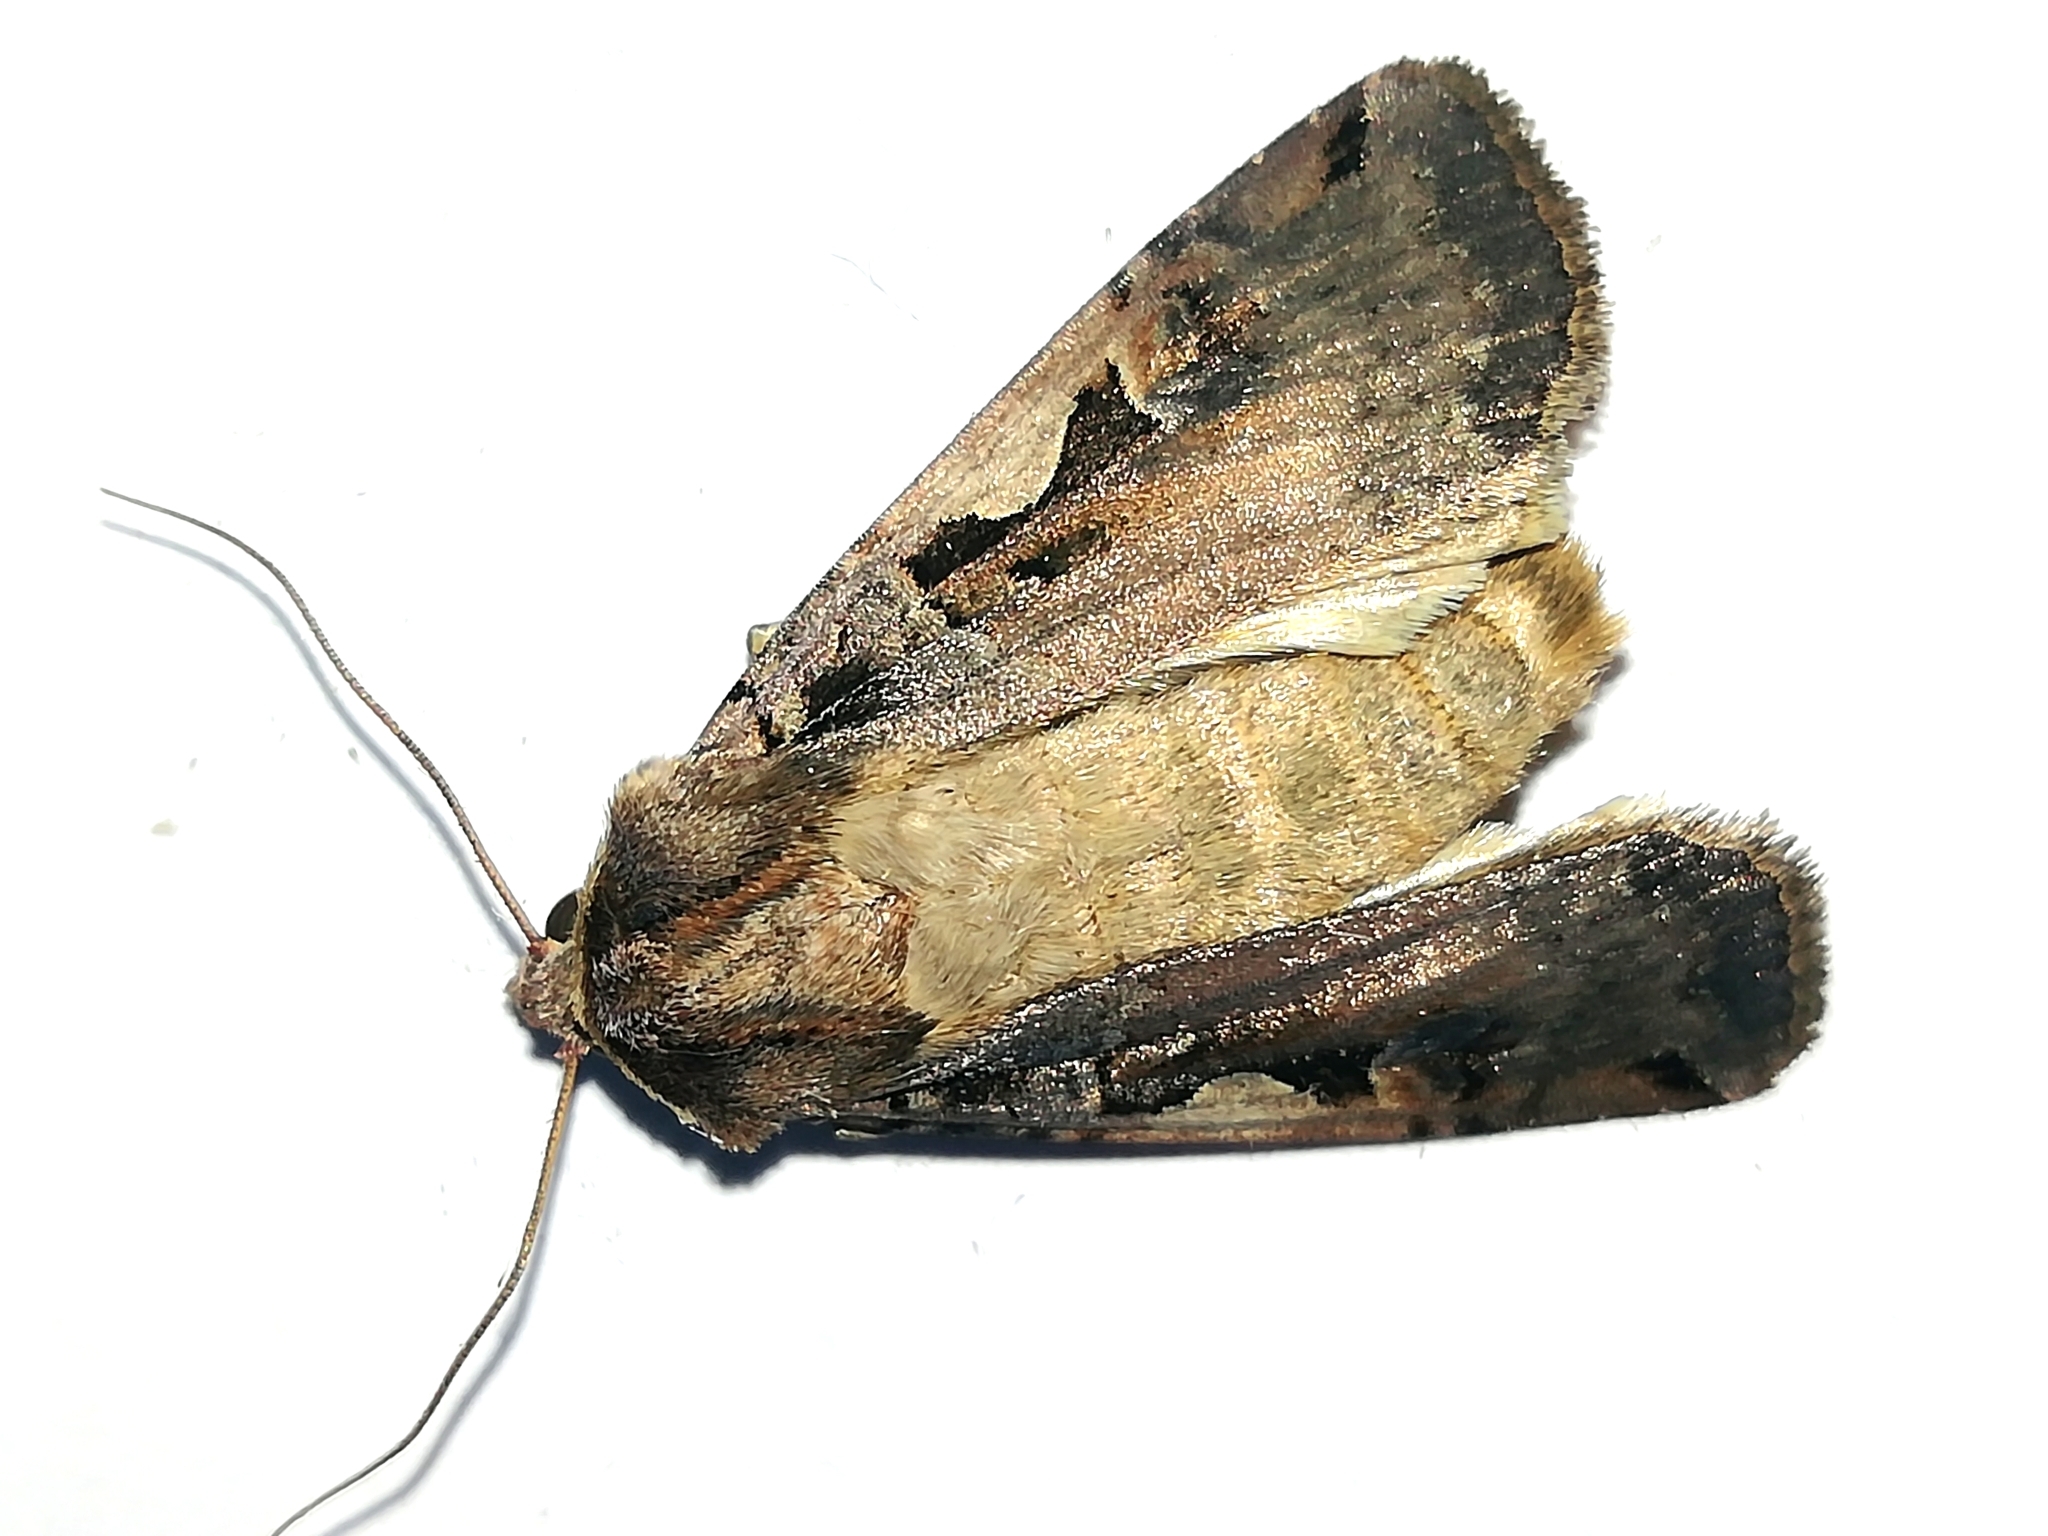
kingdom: Animalia
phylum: Arthropoda
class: Insecta
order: Lepidoptera
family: Noctuidae
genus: Xestia
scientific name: Xestia c-nigrum
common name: Setaceous hebrew character
